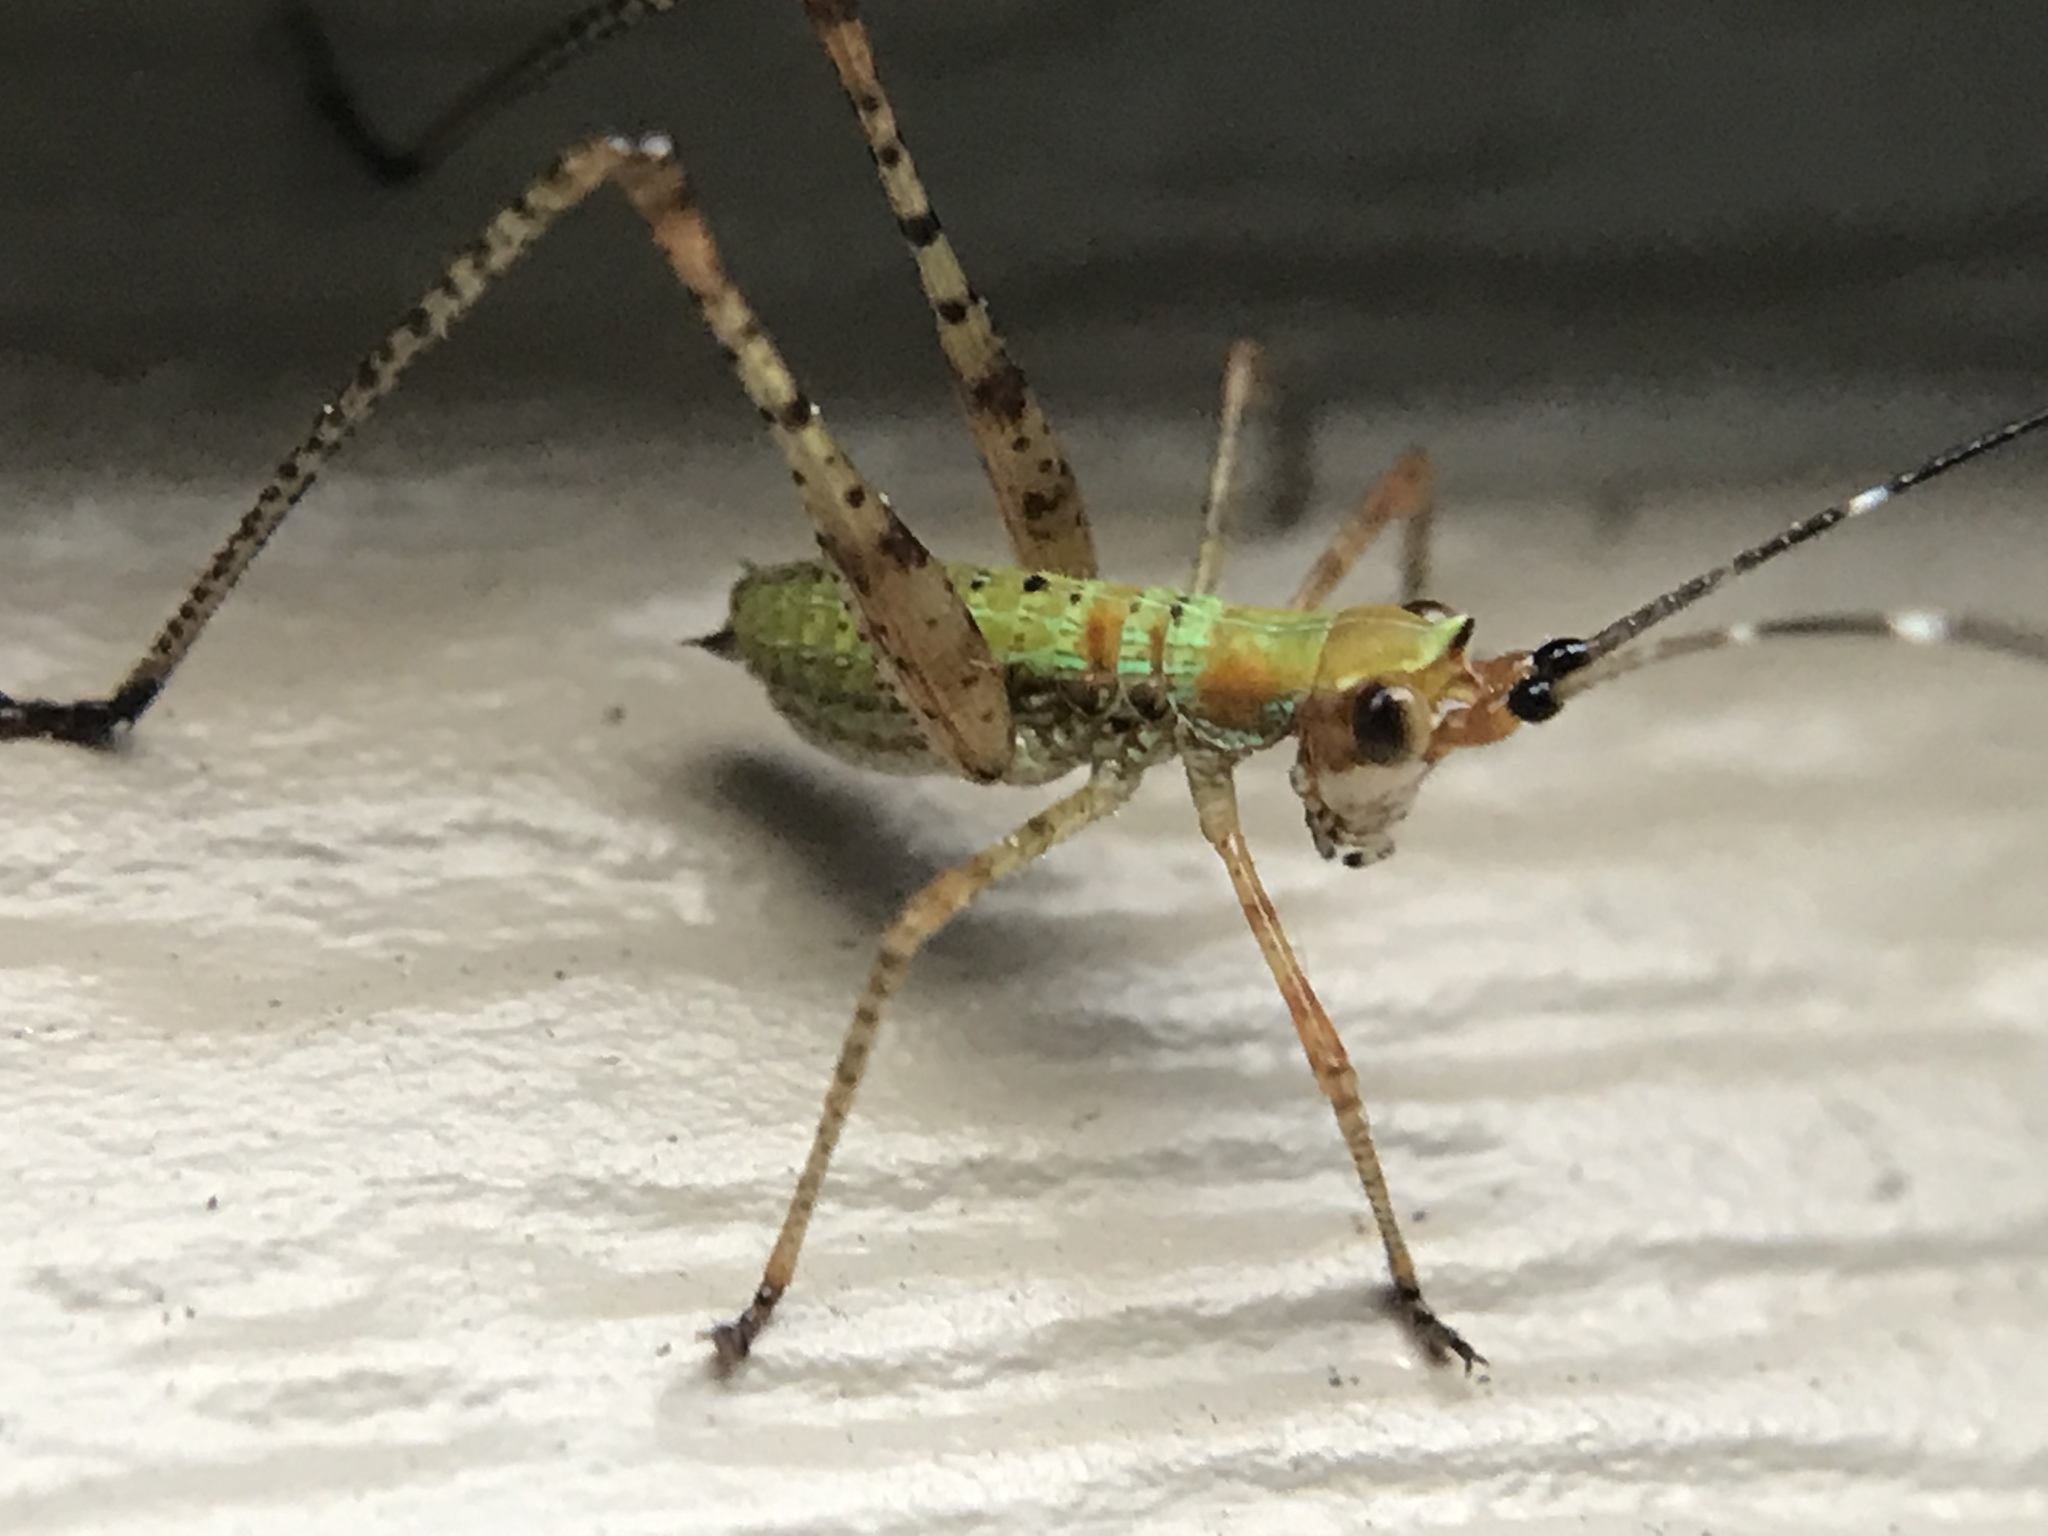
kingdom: Animalia
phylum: Arthropoda
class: Insecta
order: Orthoptera
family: Tettigoniidae
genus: Scudderia
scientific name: Scudderia
